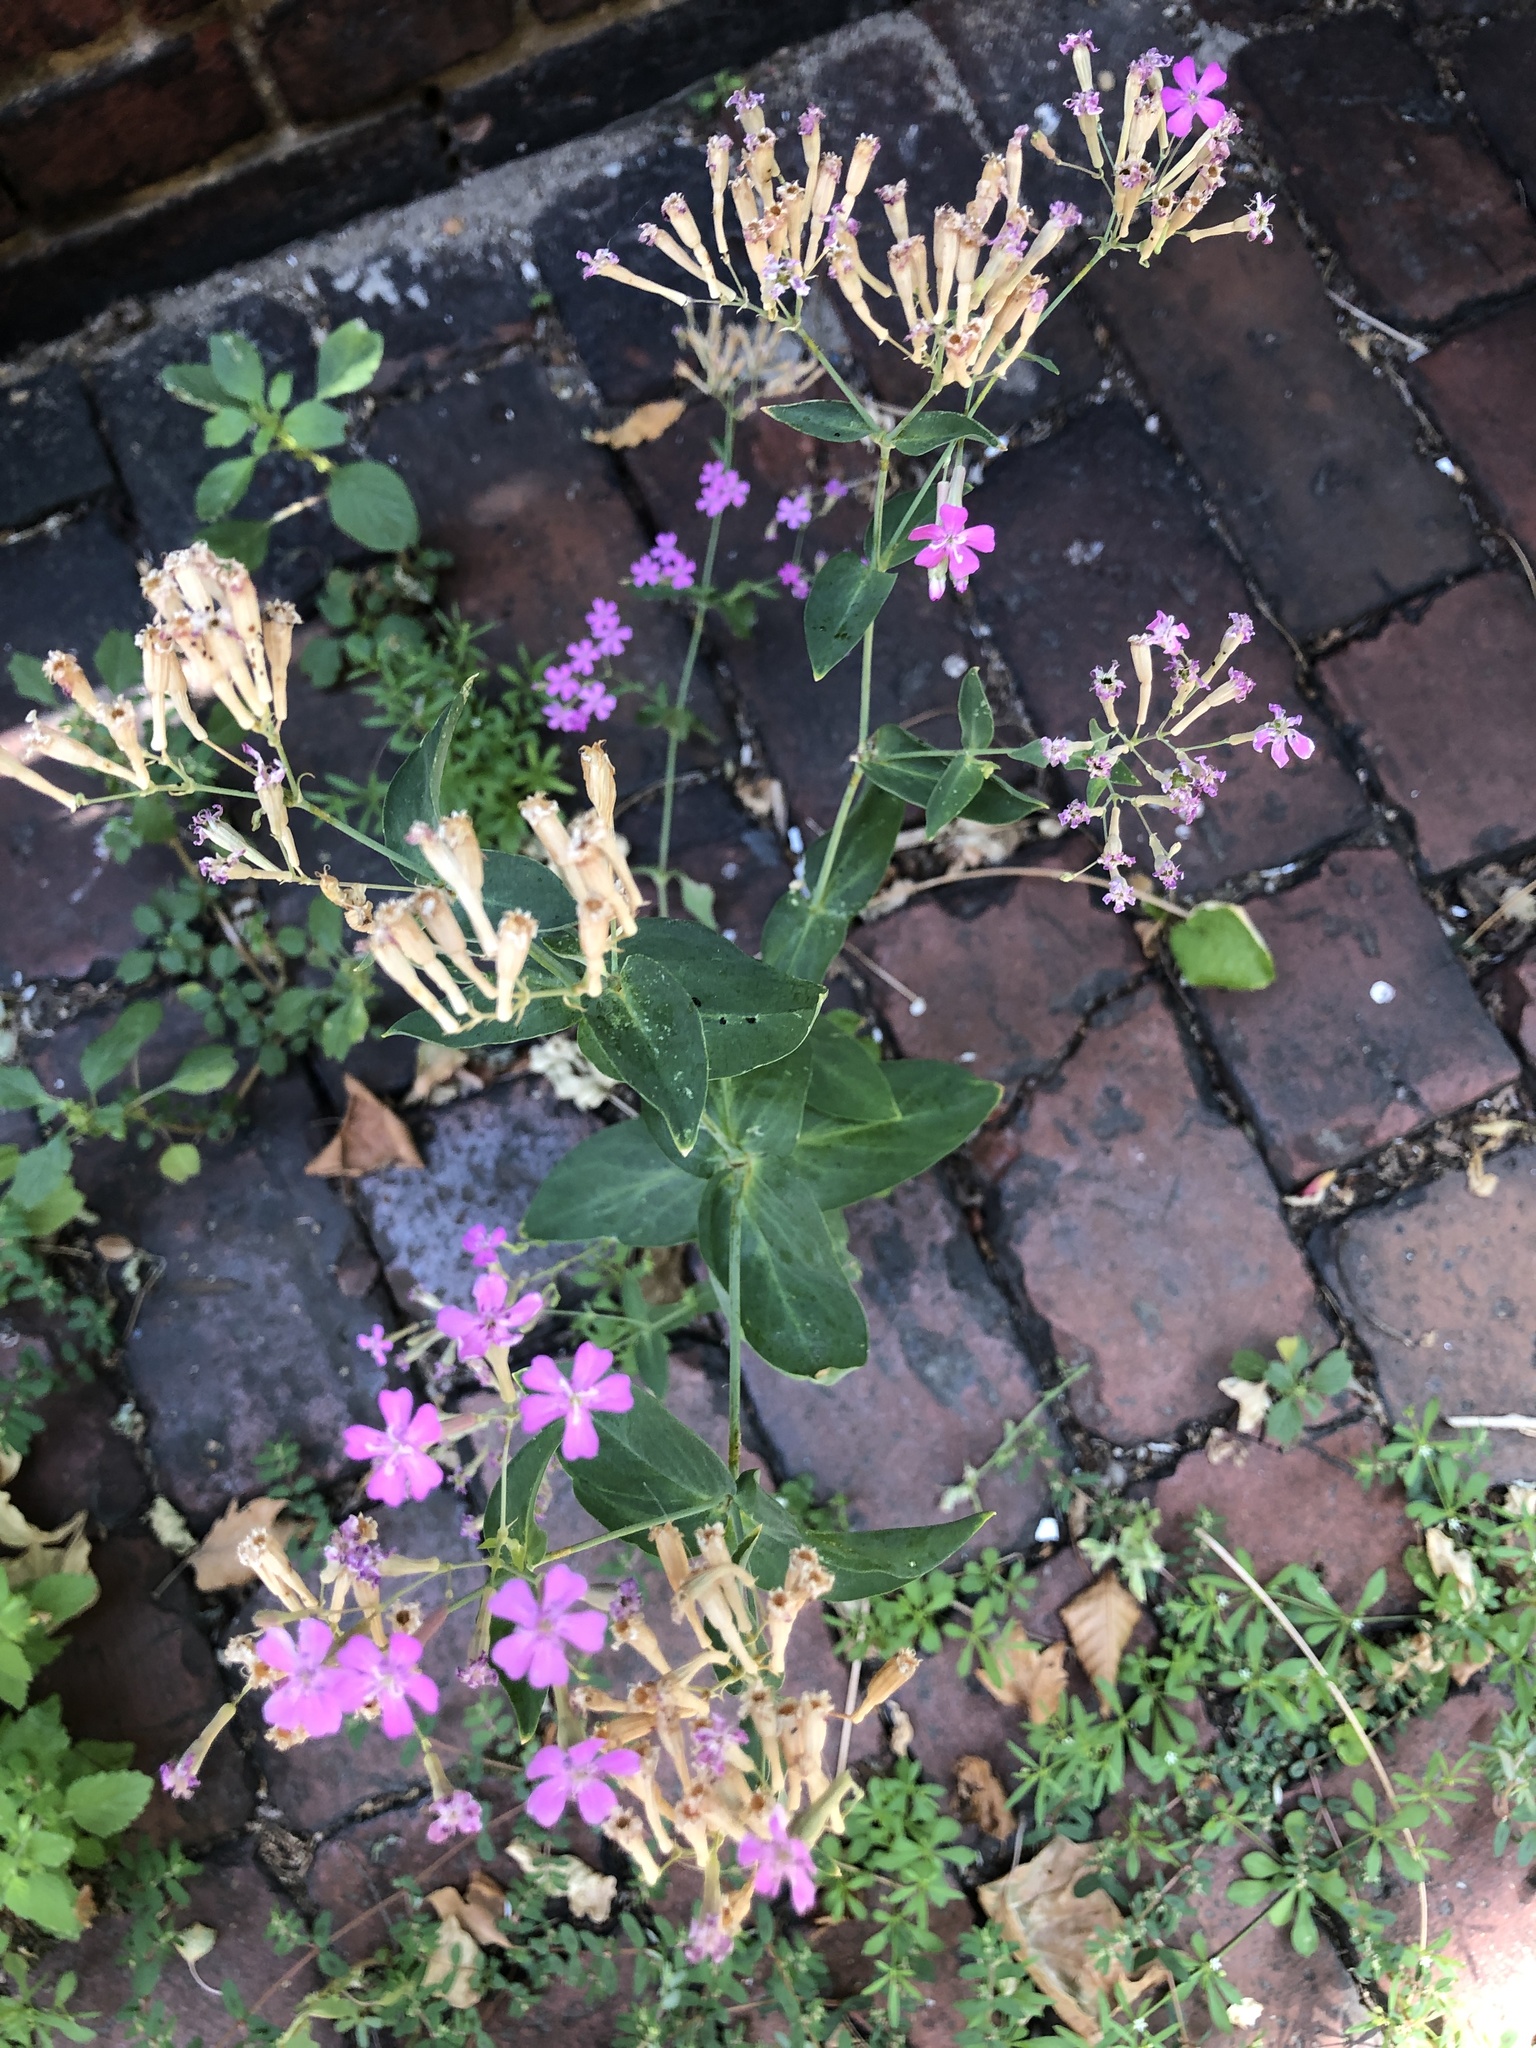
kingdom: Plantae
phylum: Tracheophyta
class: Magnoliopsida
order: Caryophyllales
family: Caryophyllaceae
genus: Atocion
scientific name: Atocion armeria
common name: Sweet william catchfly
